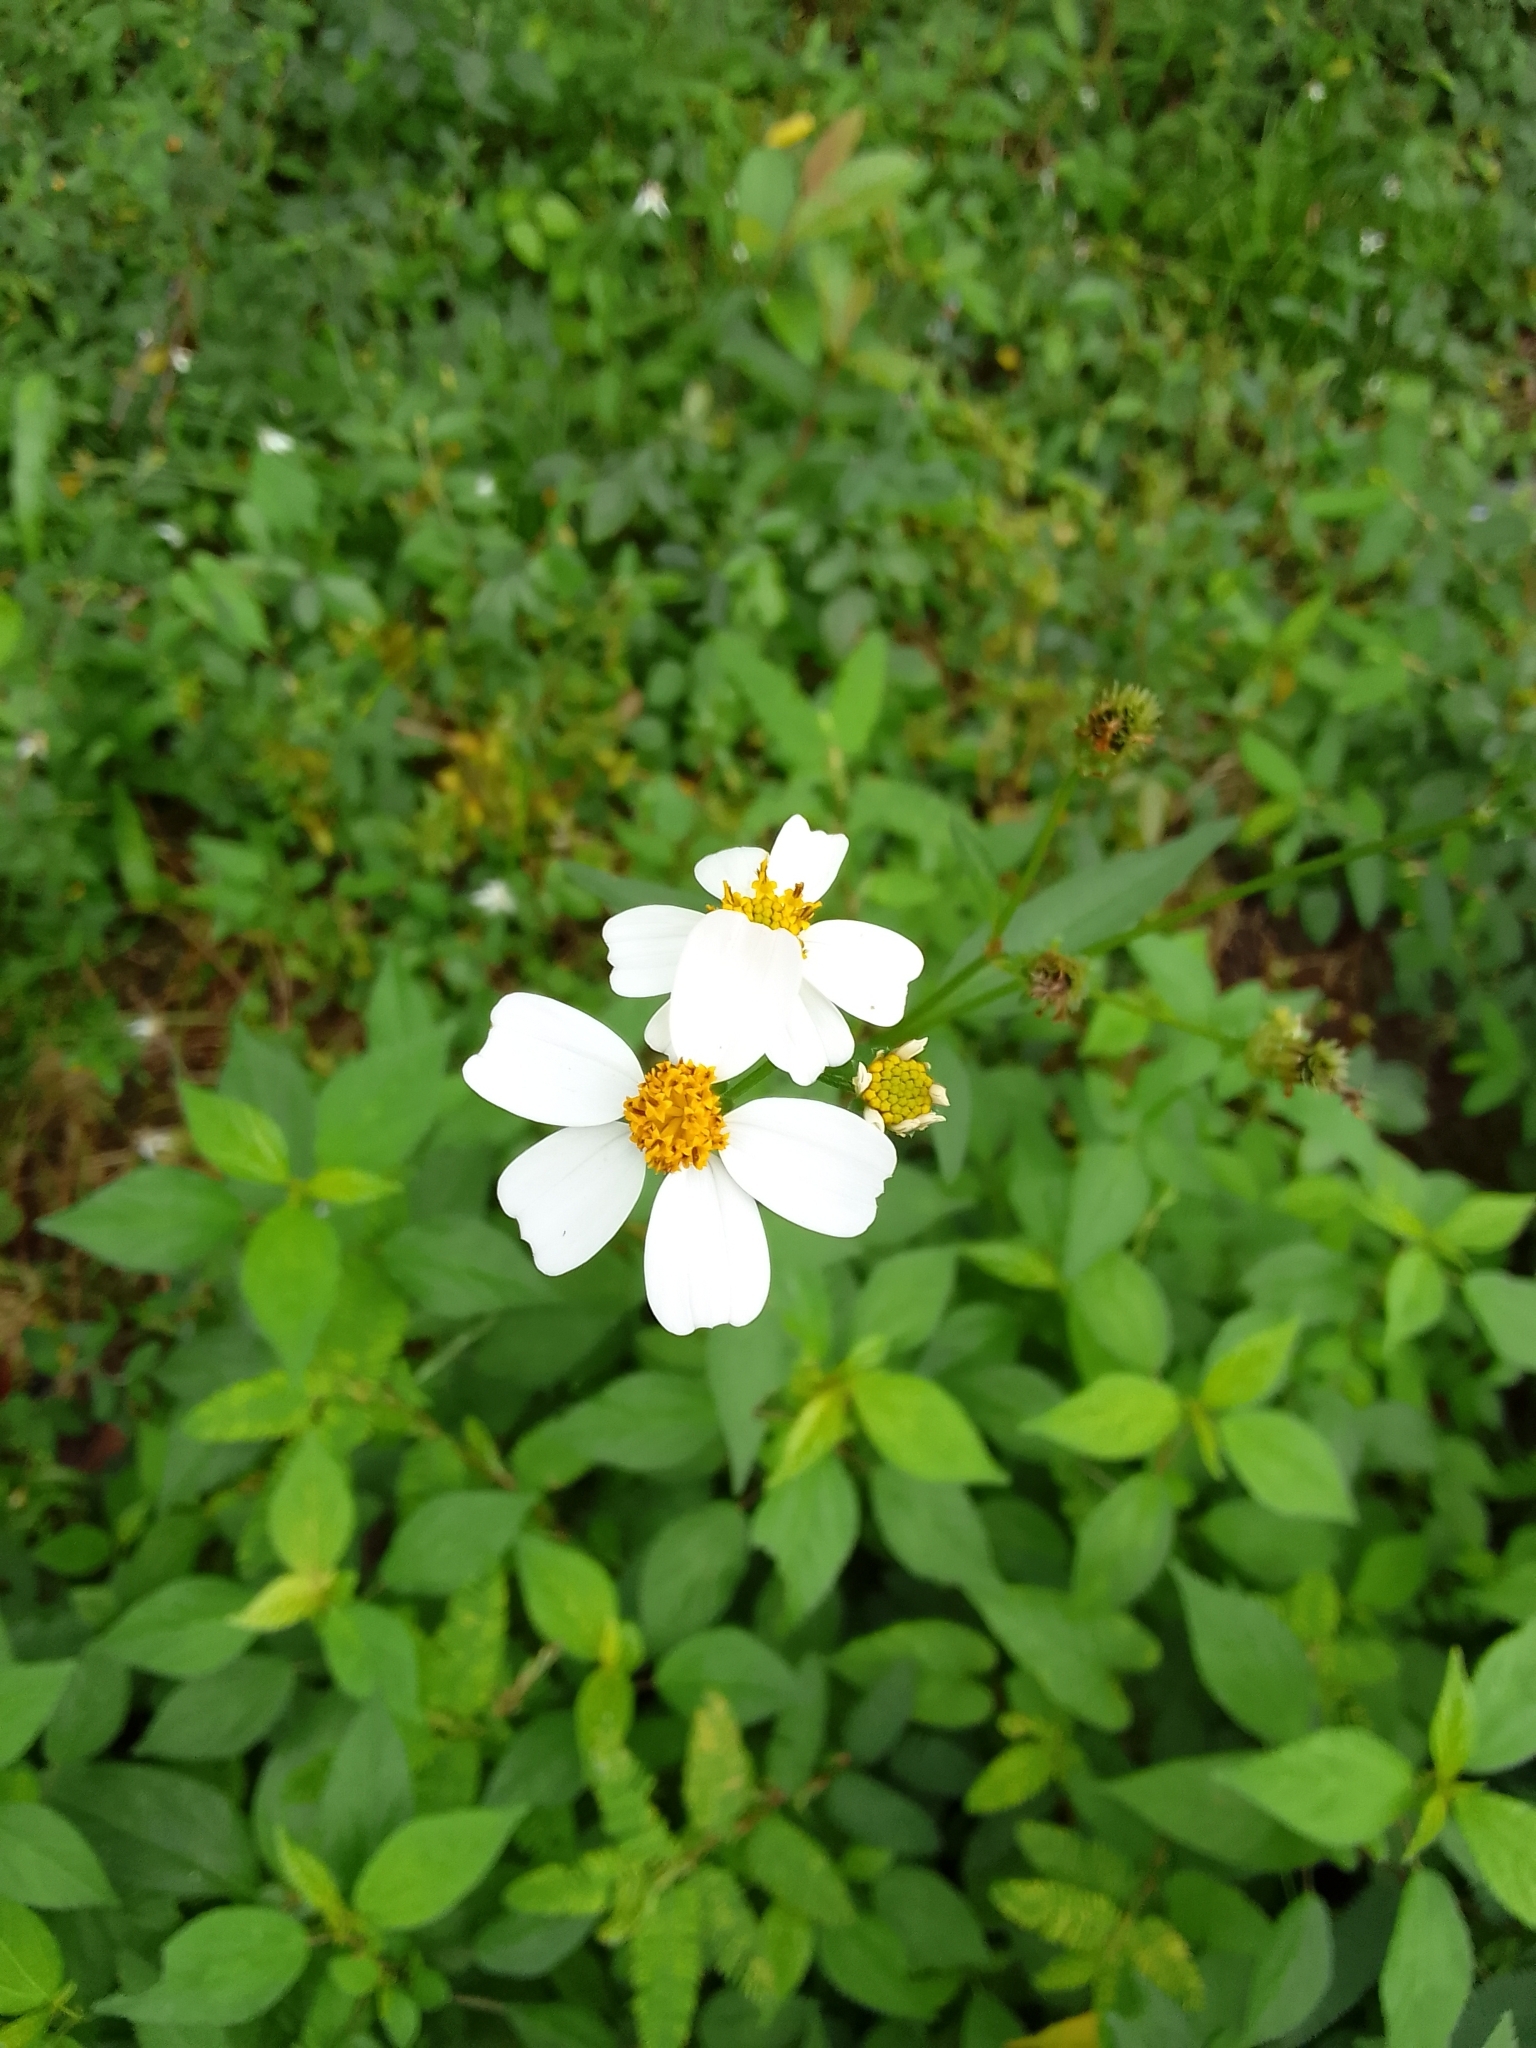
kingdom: Plantae
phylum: Tracheophyta
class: Magnoliopsida
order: Asterales
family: Asteraceae
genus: Bidens
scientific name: Bidens alba
